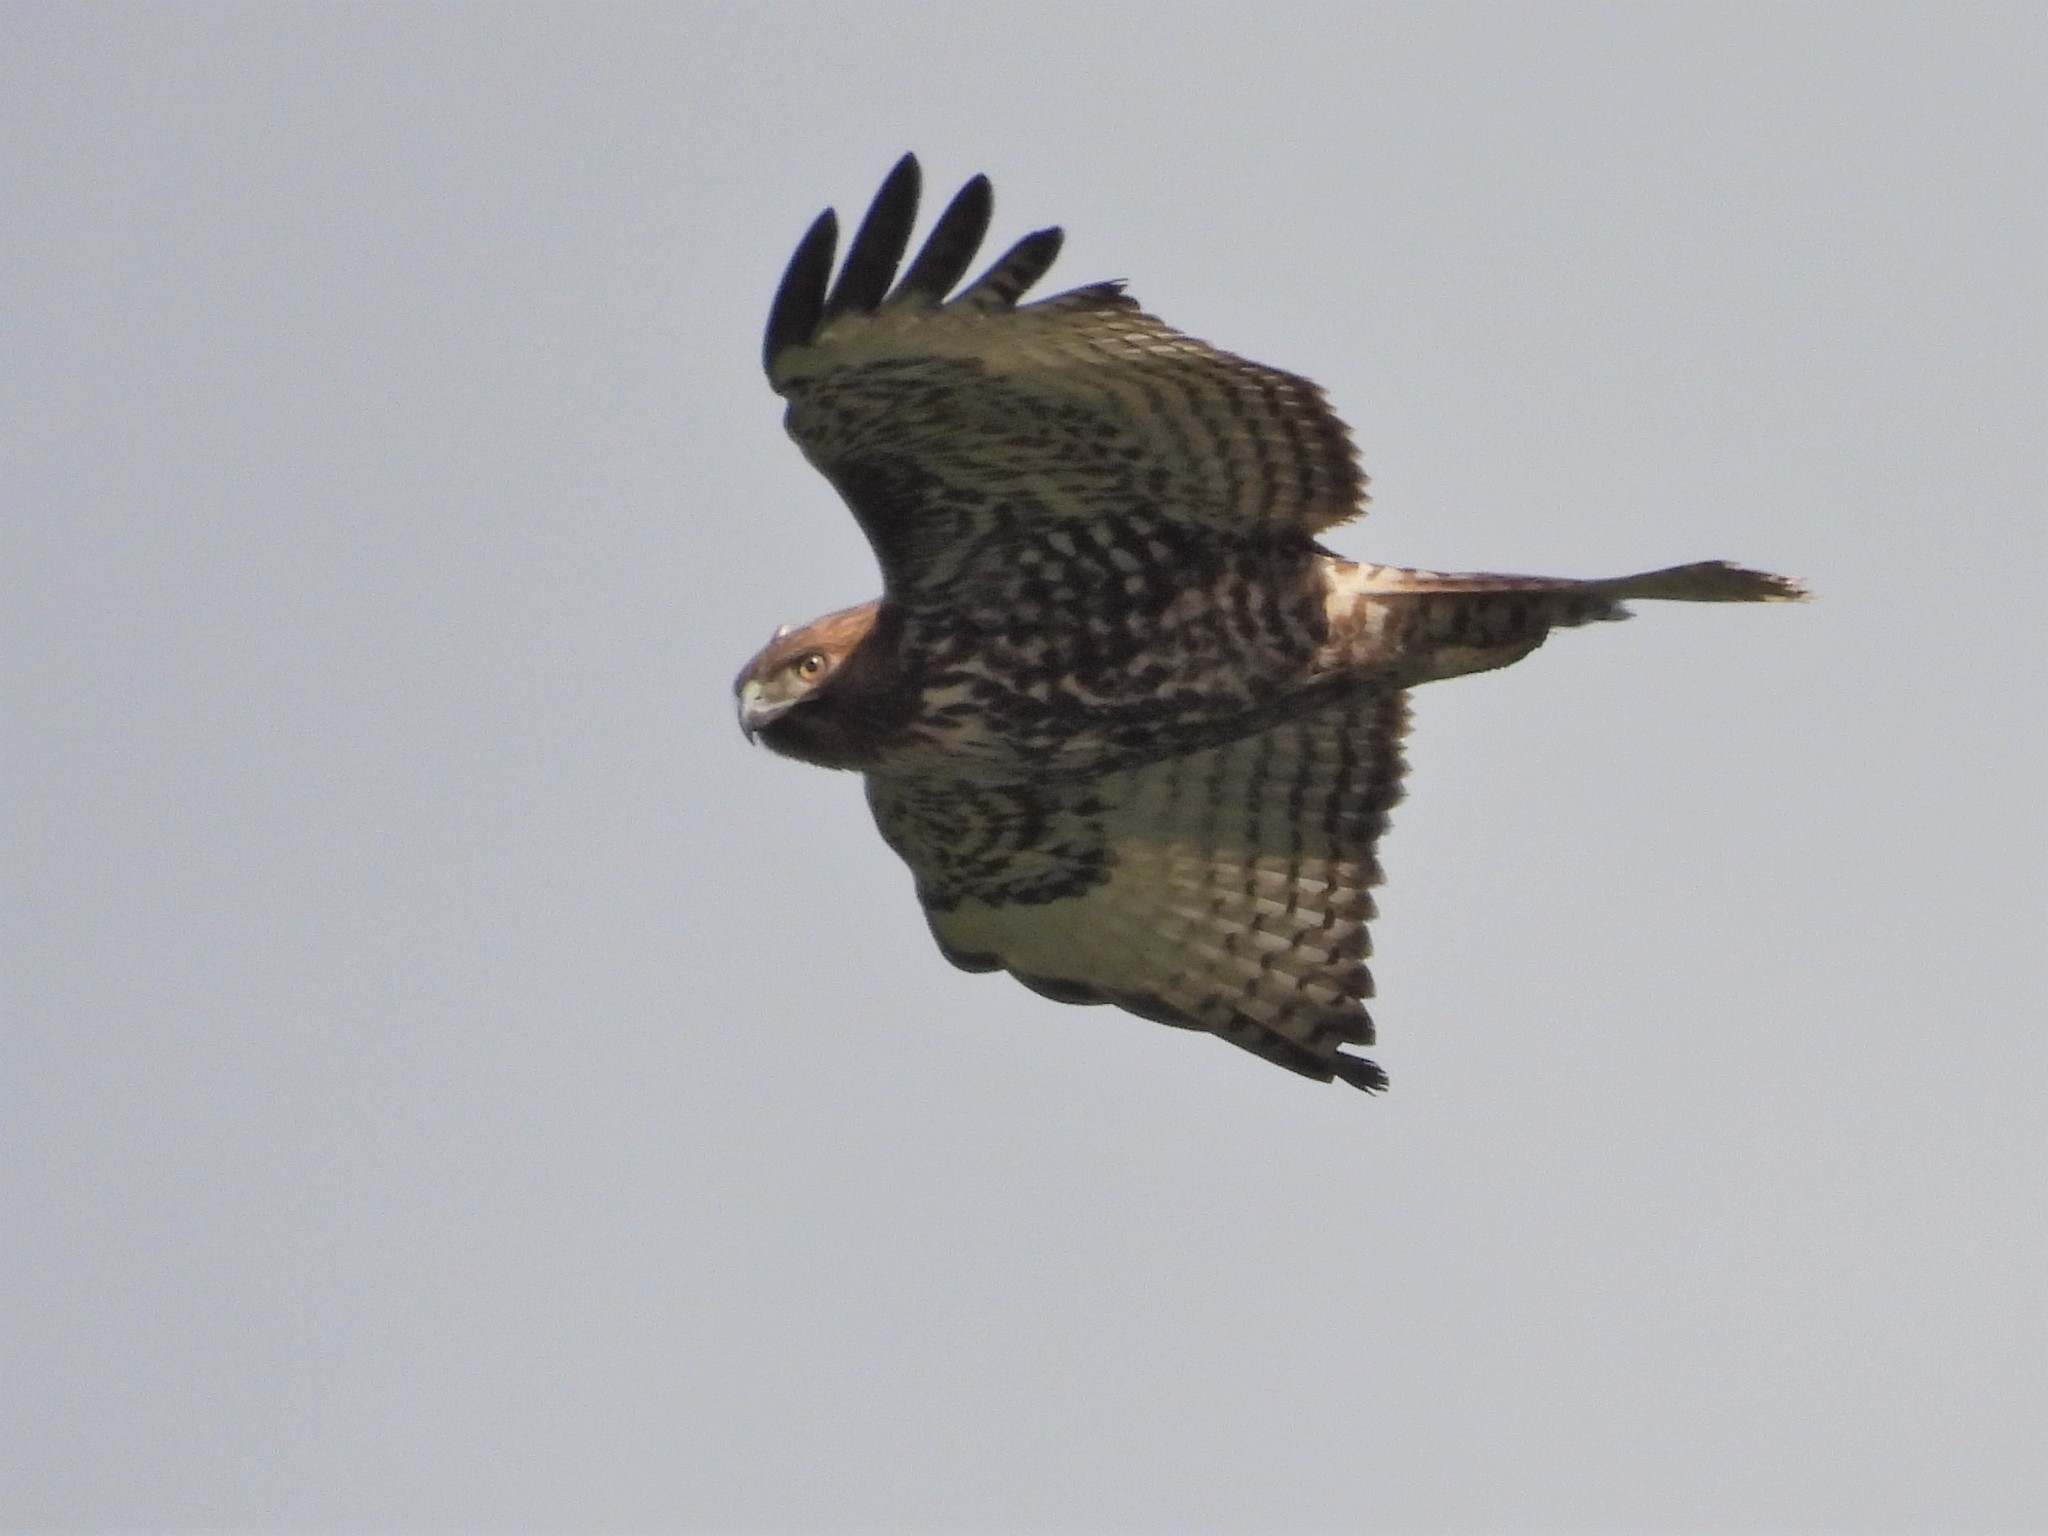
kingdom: Animalia
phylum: Chordata
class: Aves
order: Accipitriformes
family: Accipitridae
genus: Buteo
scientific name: Buteo jamaicensis
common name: Red-tailed hawk
